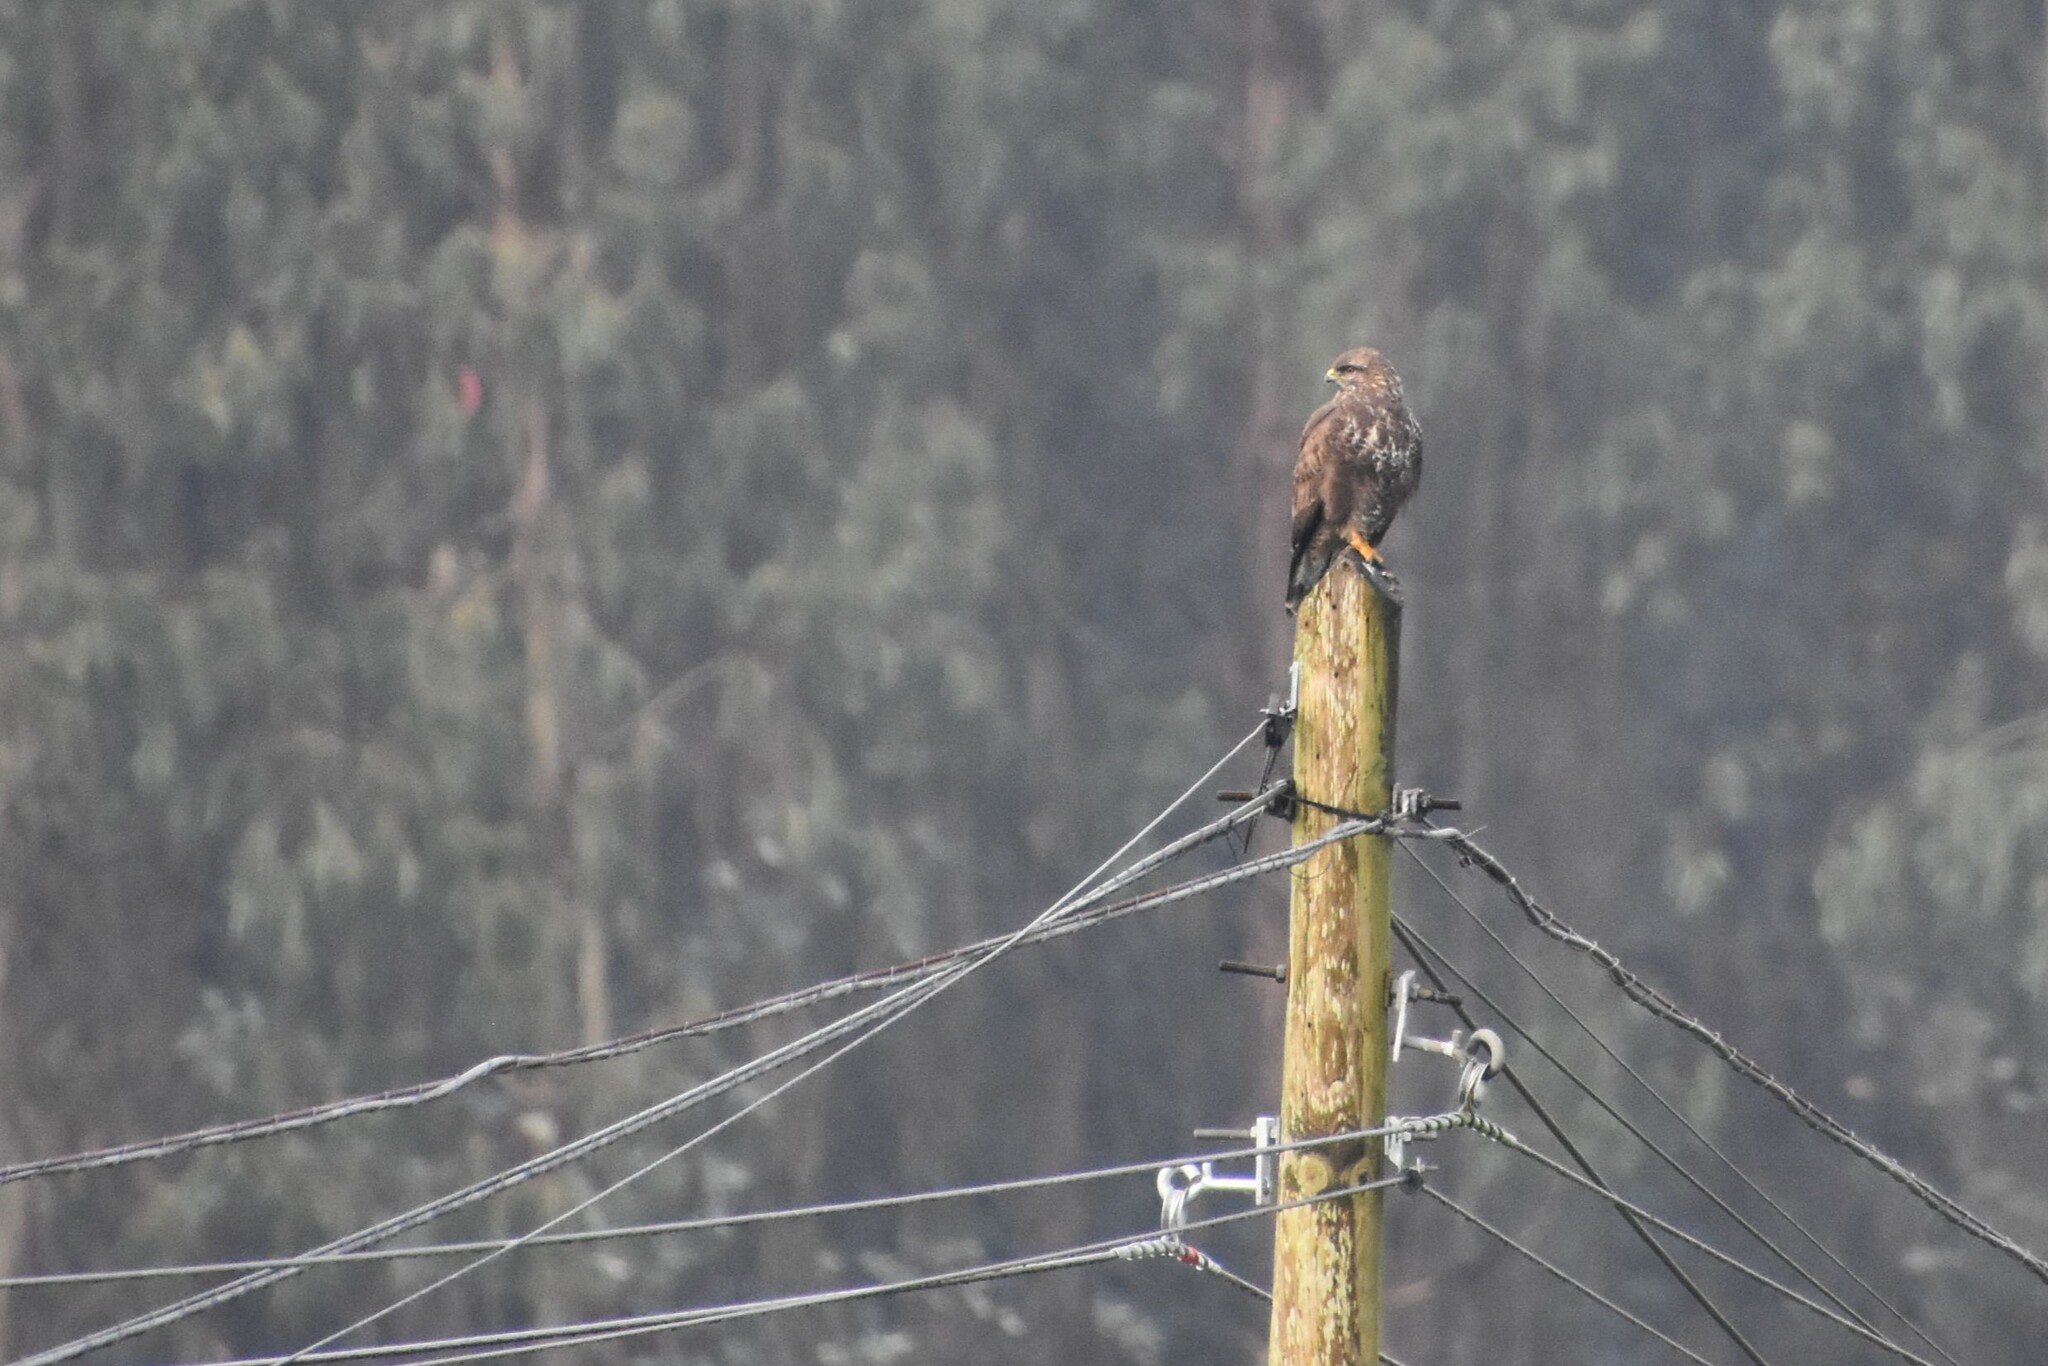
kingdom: Animalia
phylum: Chordata
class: Aves
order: Accipitriformes
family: Accipitridae
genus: Buteo
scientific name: Buteo buteo
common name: Common buzzard
